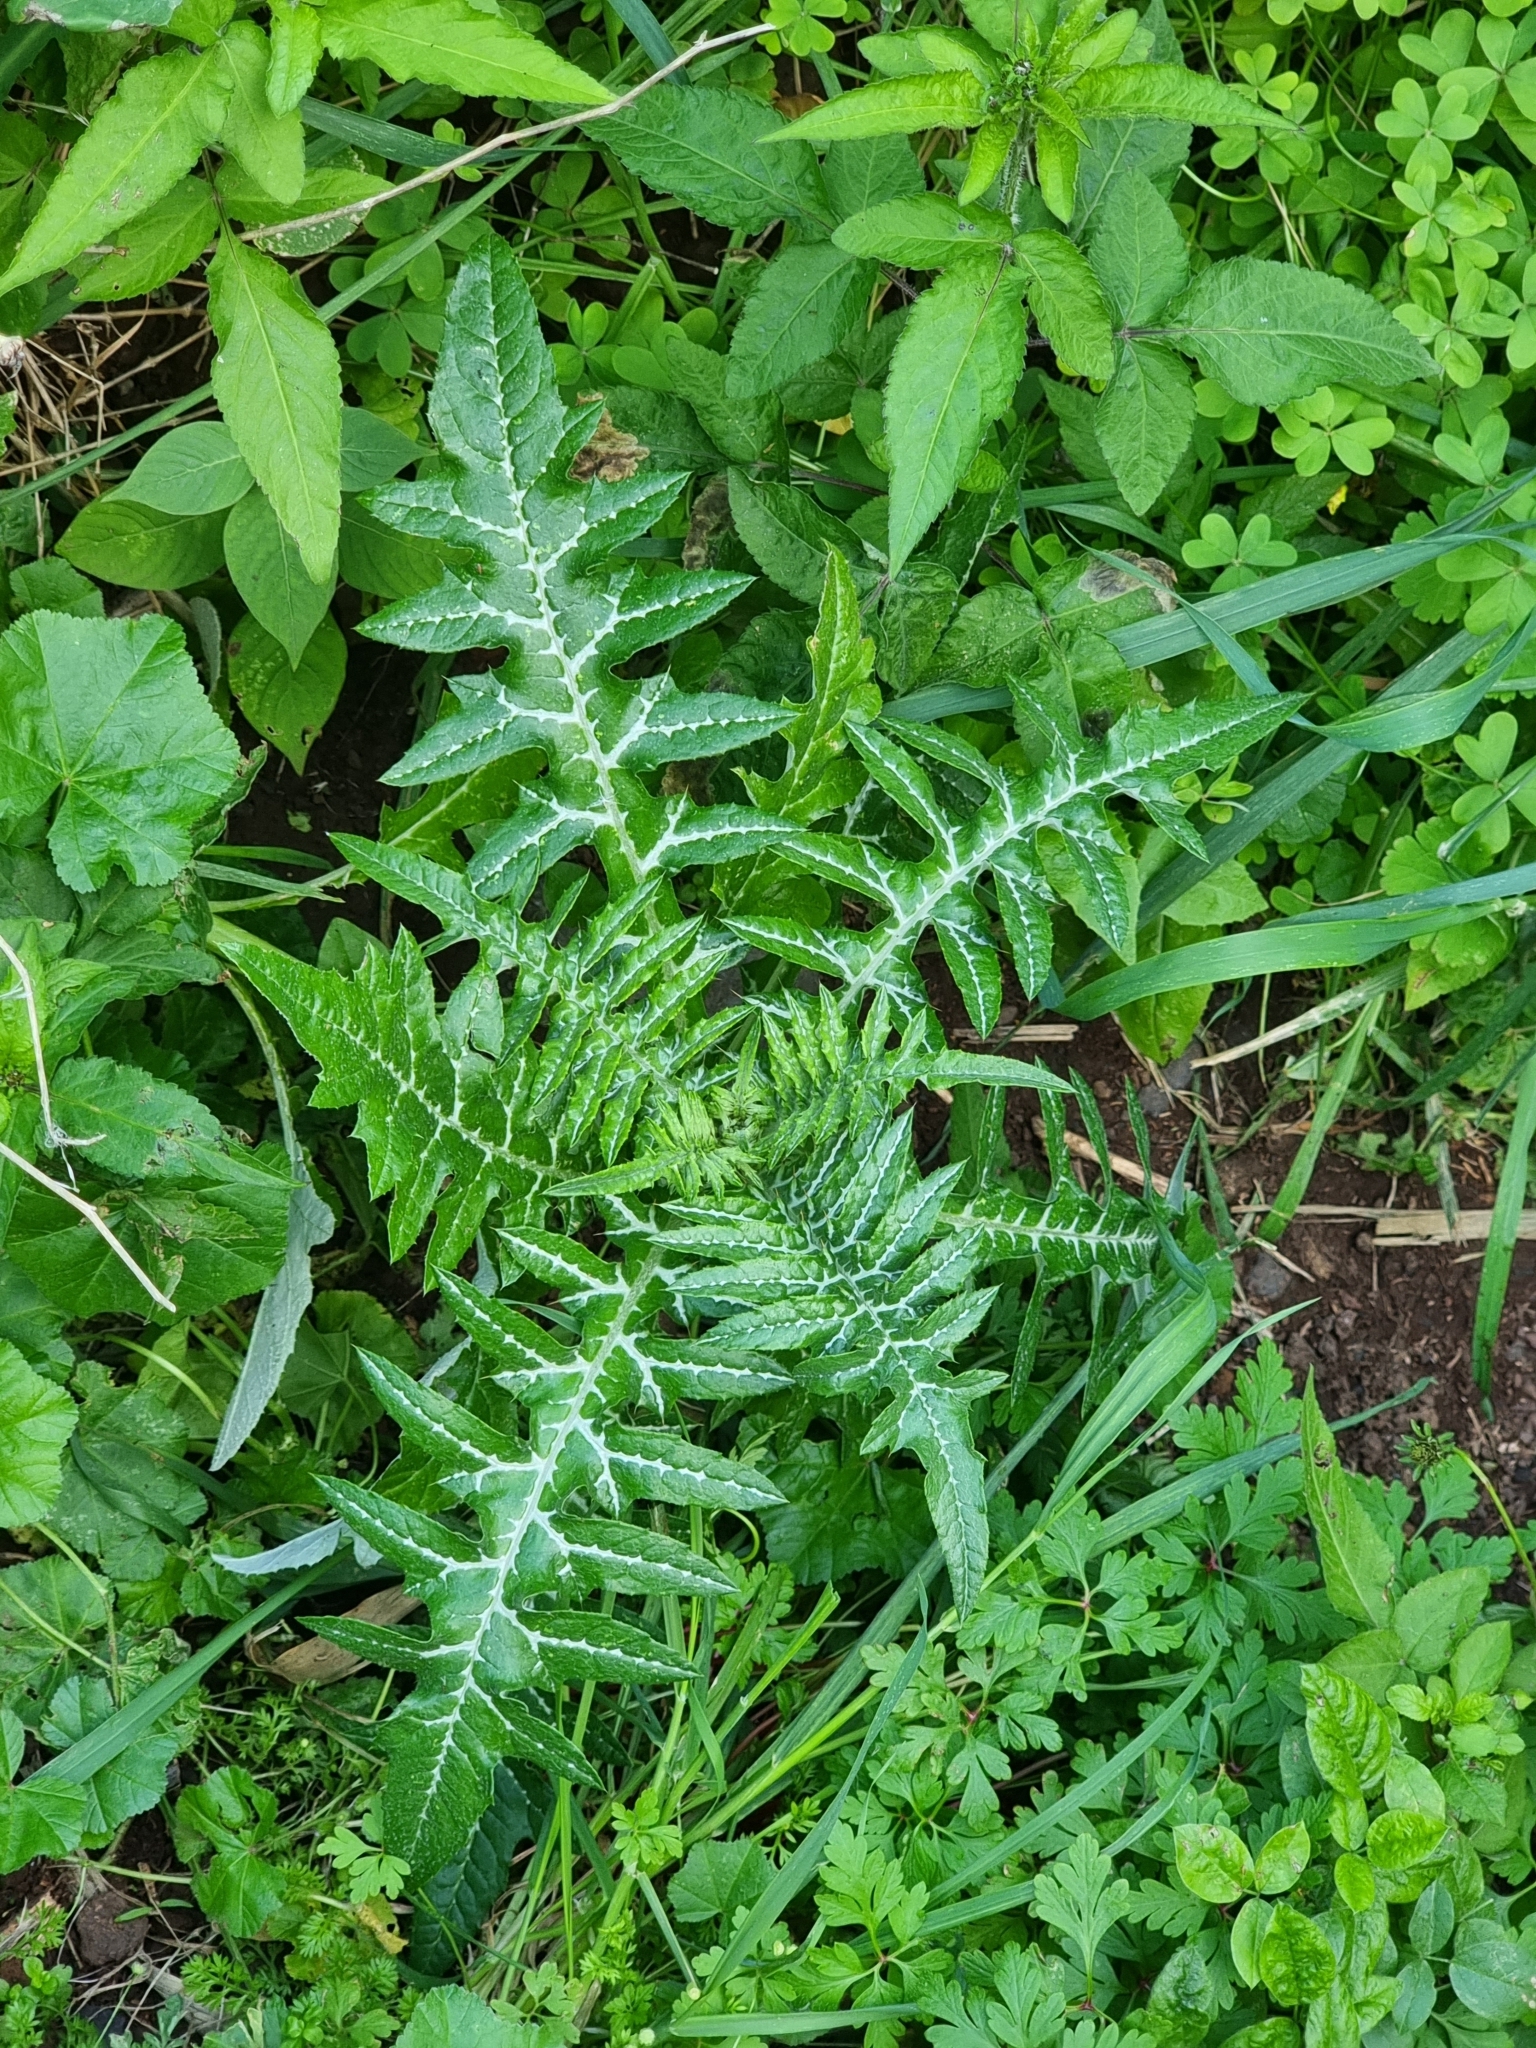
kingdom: Plantae
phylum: Tracheophyta
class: Magnoliopsida
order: Asterales
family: Asteraceae
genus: Galactites
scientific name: Galactites tomentosa
